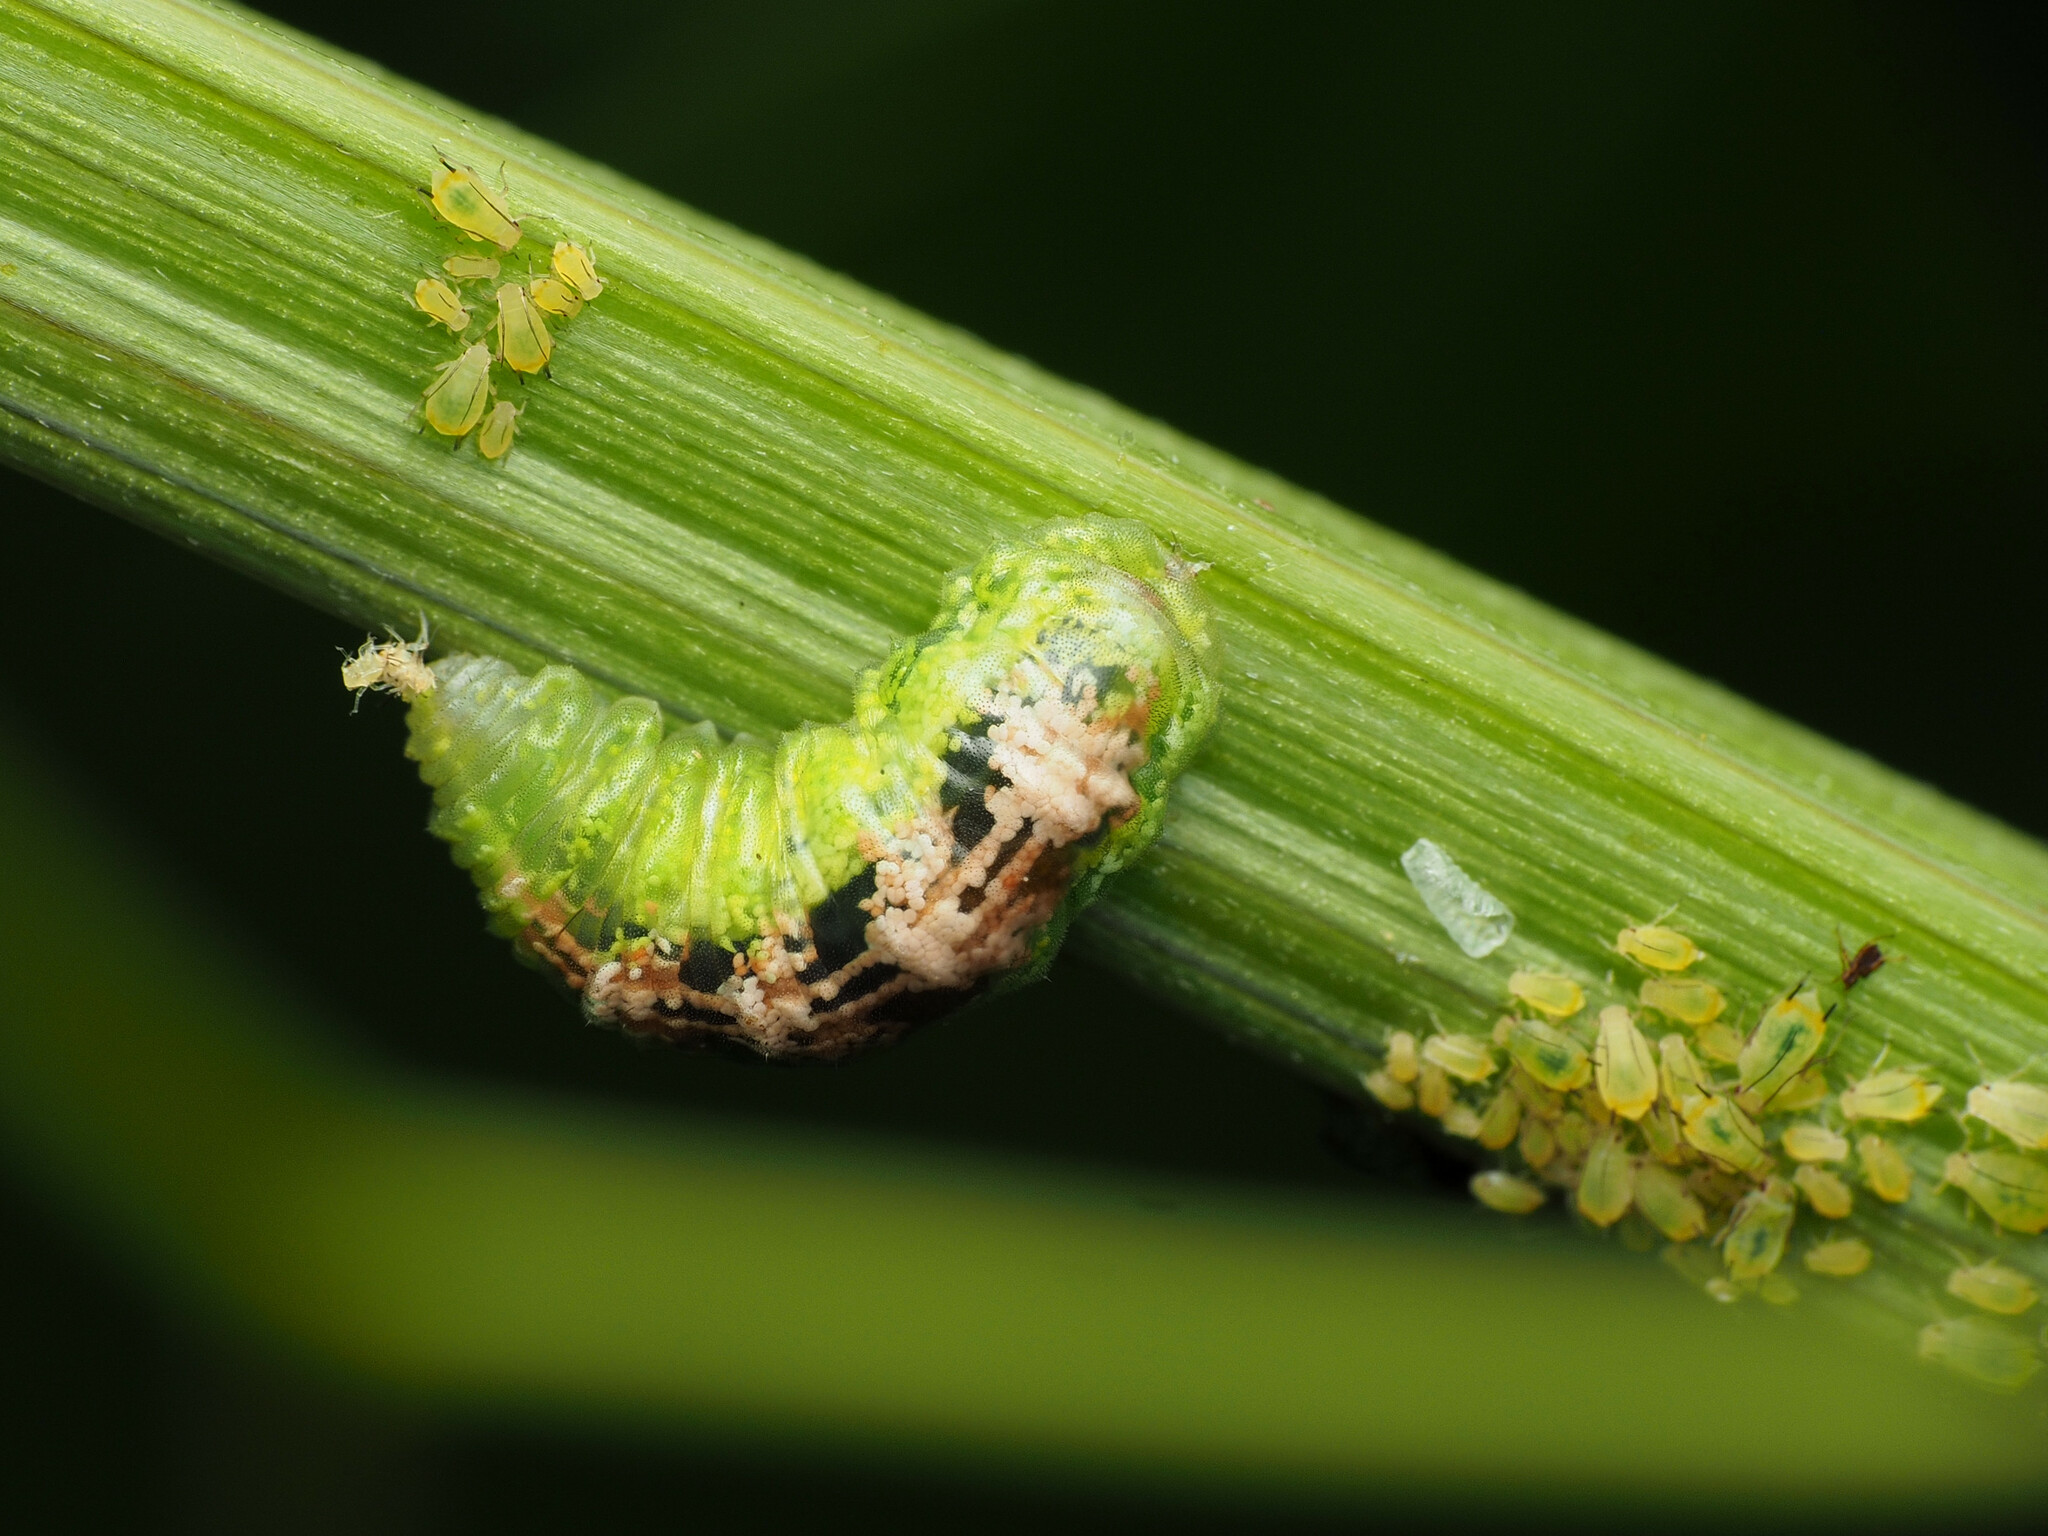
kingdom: Animalia
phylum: Arthropoda
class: Insecta
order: Diptera
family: Syrphidae
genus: Eupeodes
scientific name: Eupeodes pomus
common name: Short-tailed aphideater
